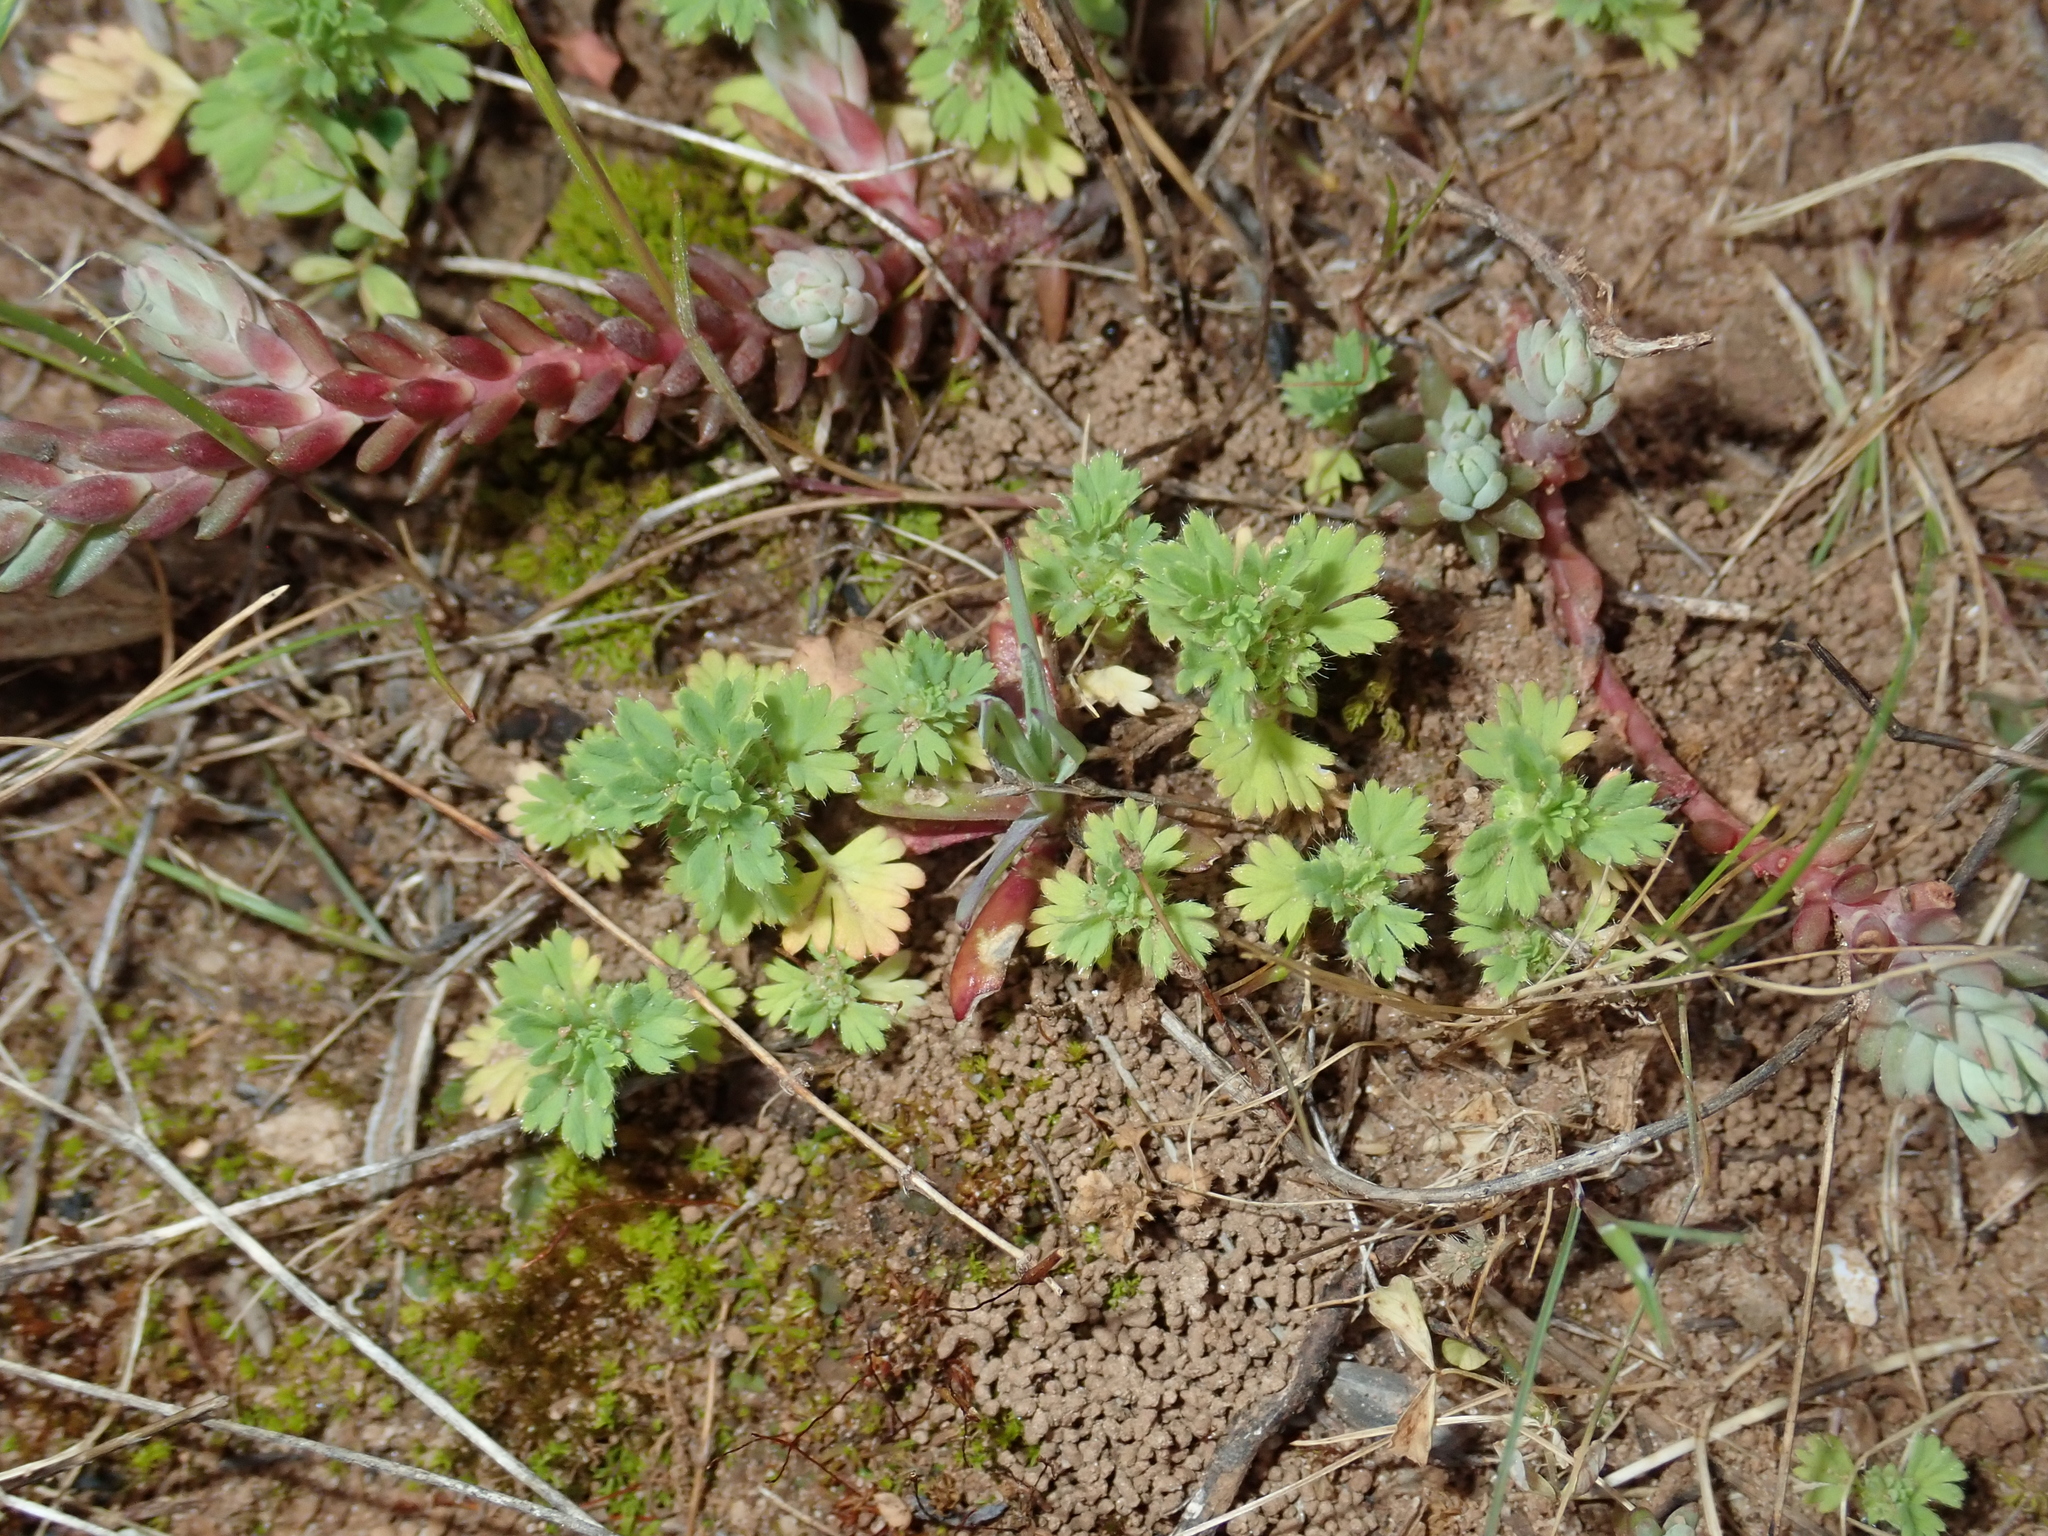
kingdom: Plantae
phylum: Tracheophyta
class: Magnoliopsida
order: Rosales
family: Rosaceae
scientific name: Rosaceae
